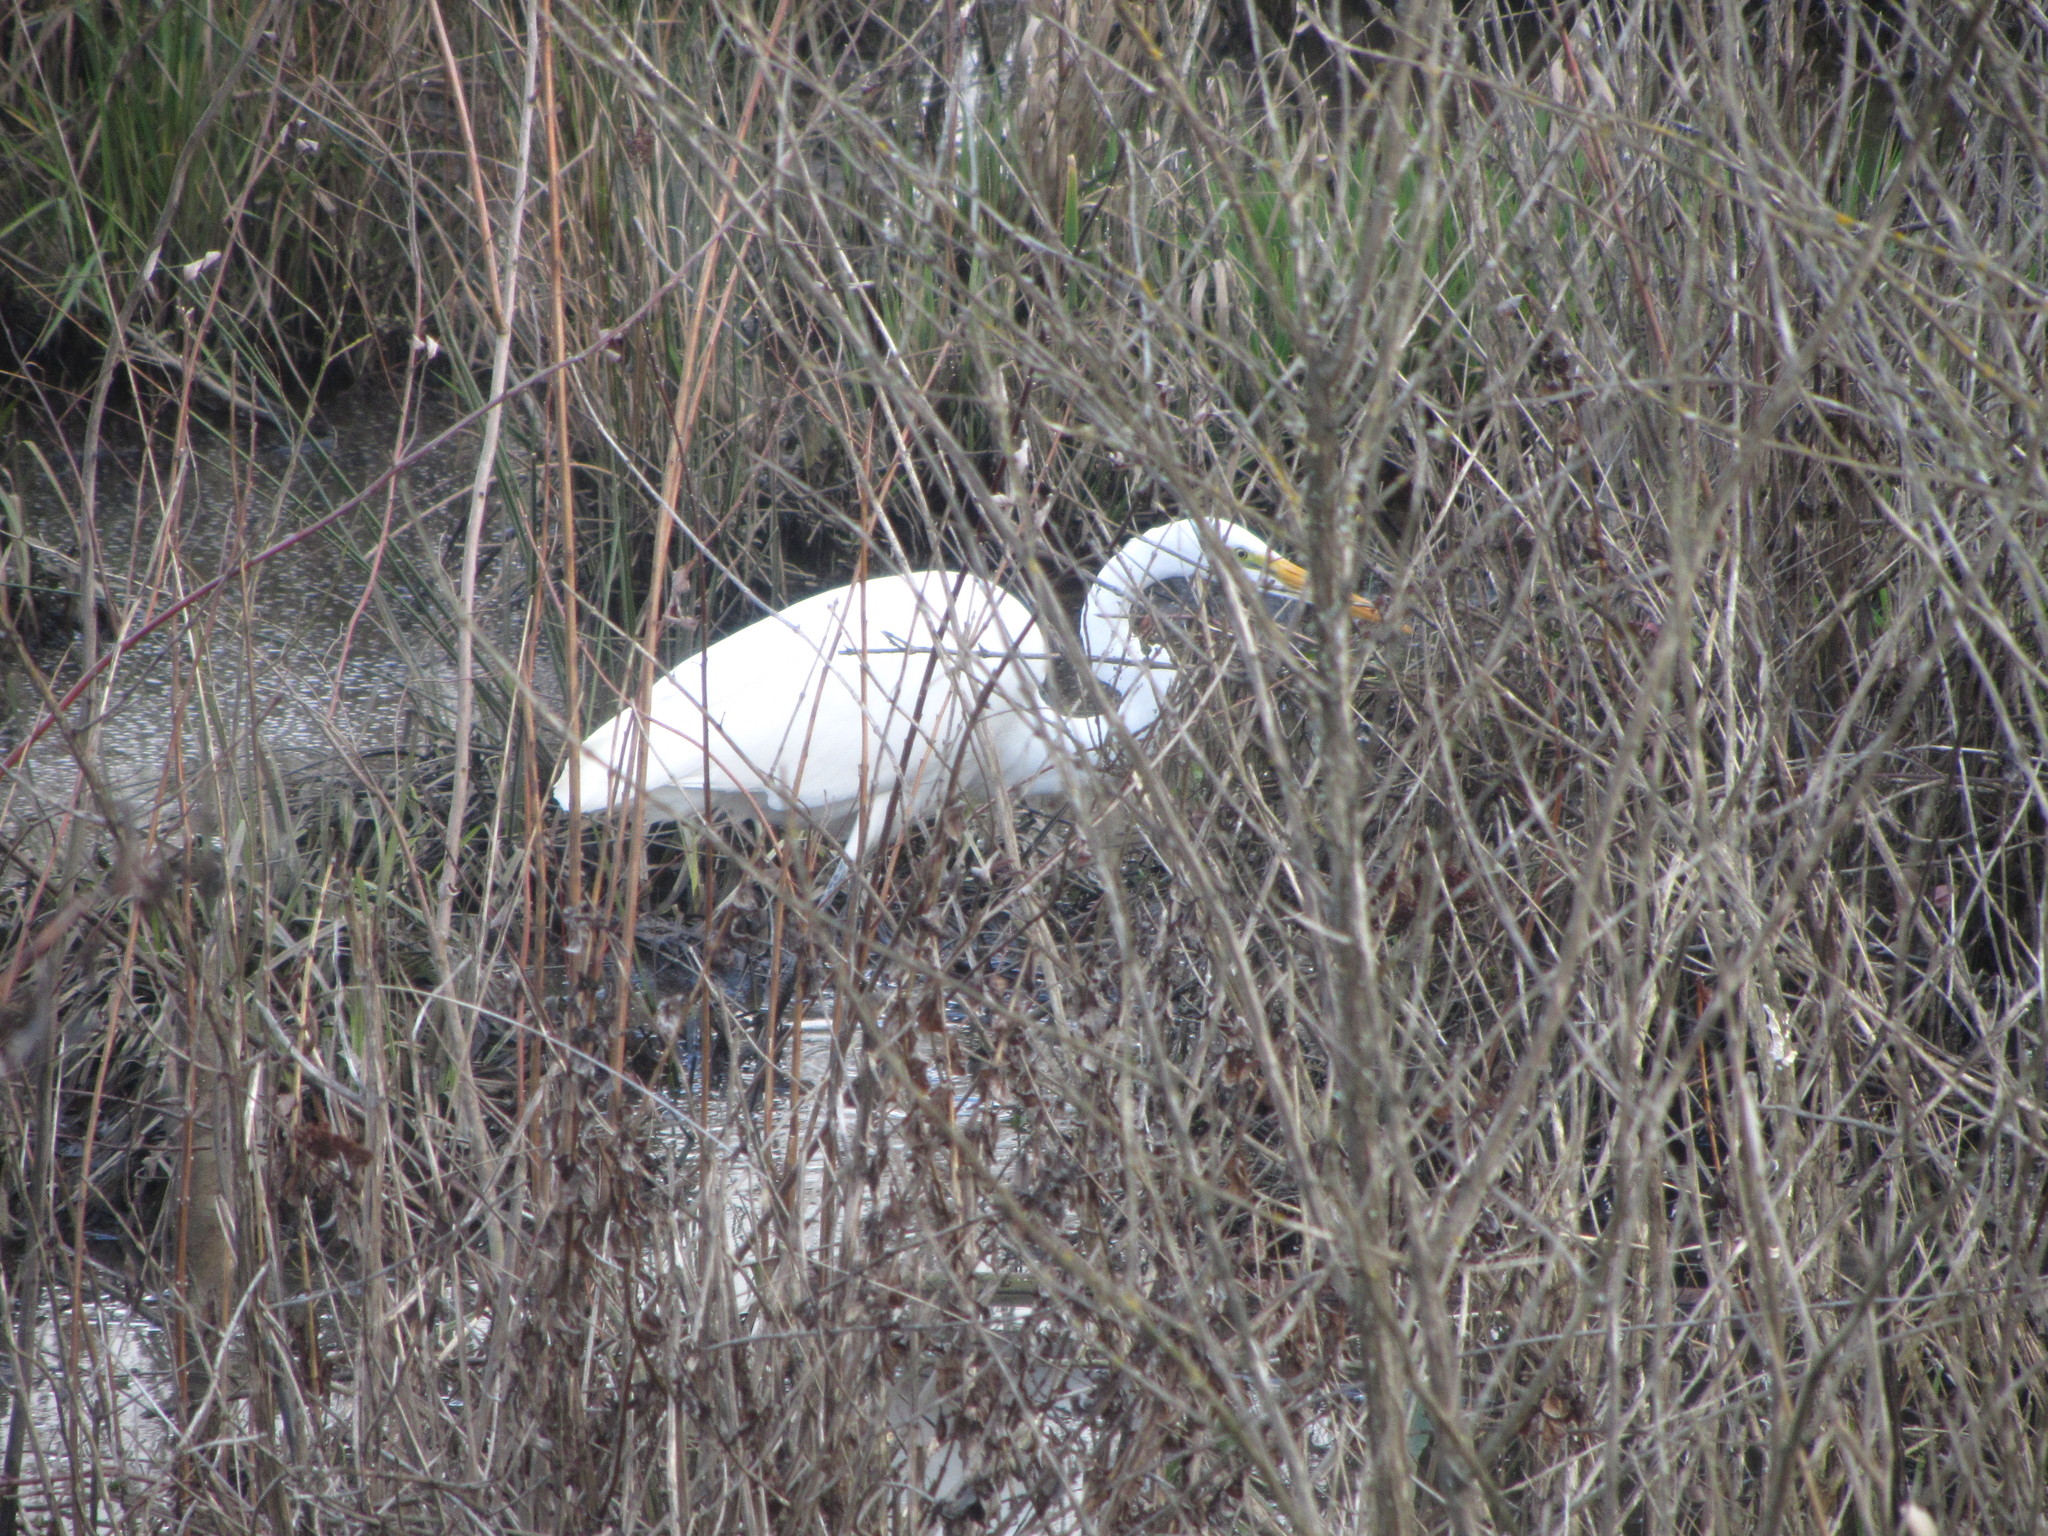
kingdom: Animalia
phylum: Chordata
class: Aves
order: Pelecaniformes
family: Ardeidae
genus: Ardea
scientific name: Ardea alba
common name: Great egret
